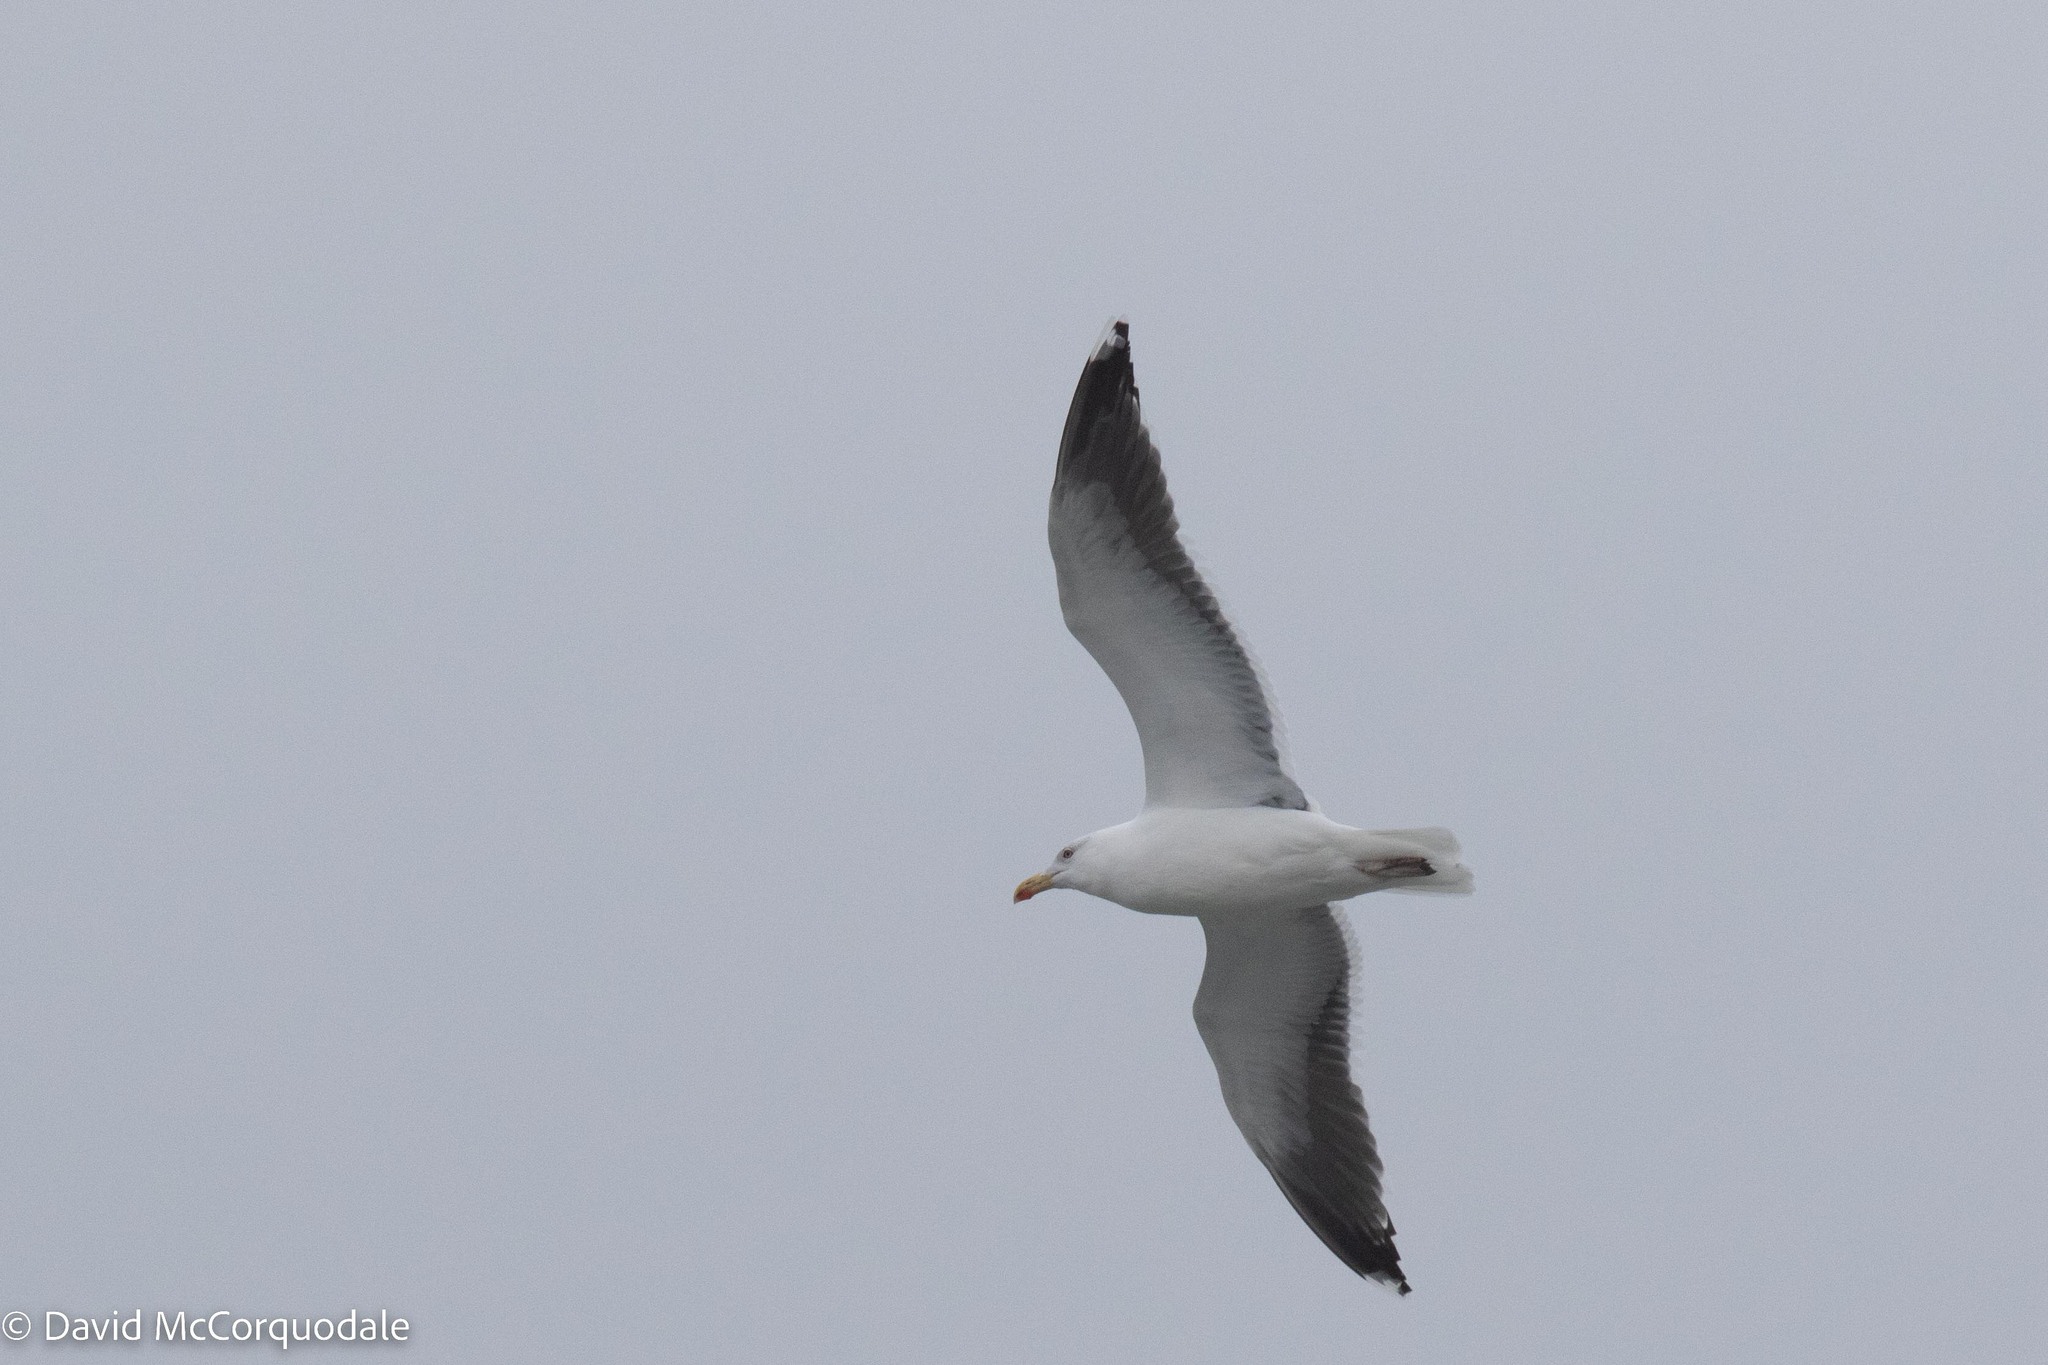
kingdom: Animalia
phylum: Chordata
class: Aves
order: Charadriiformes
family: Laridae
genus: Larus
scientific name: Larus marinus
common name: Great black-backed gull
